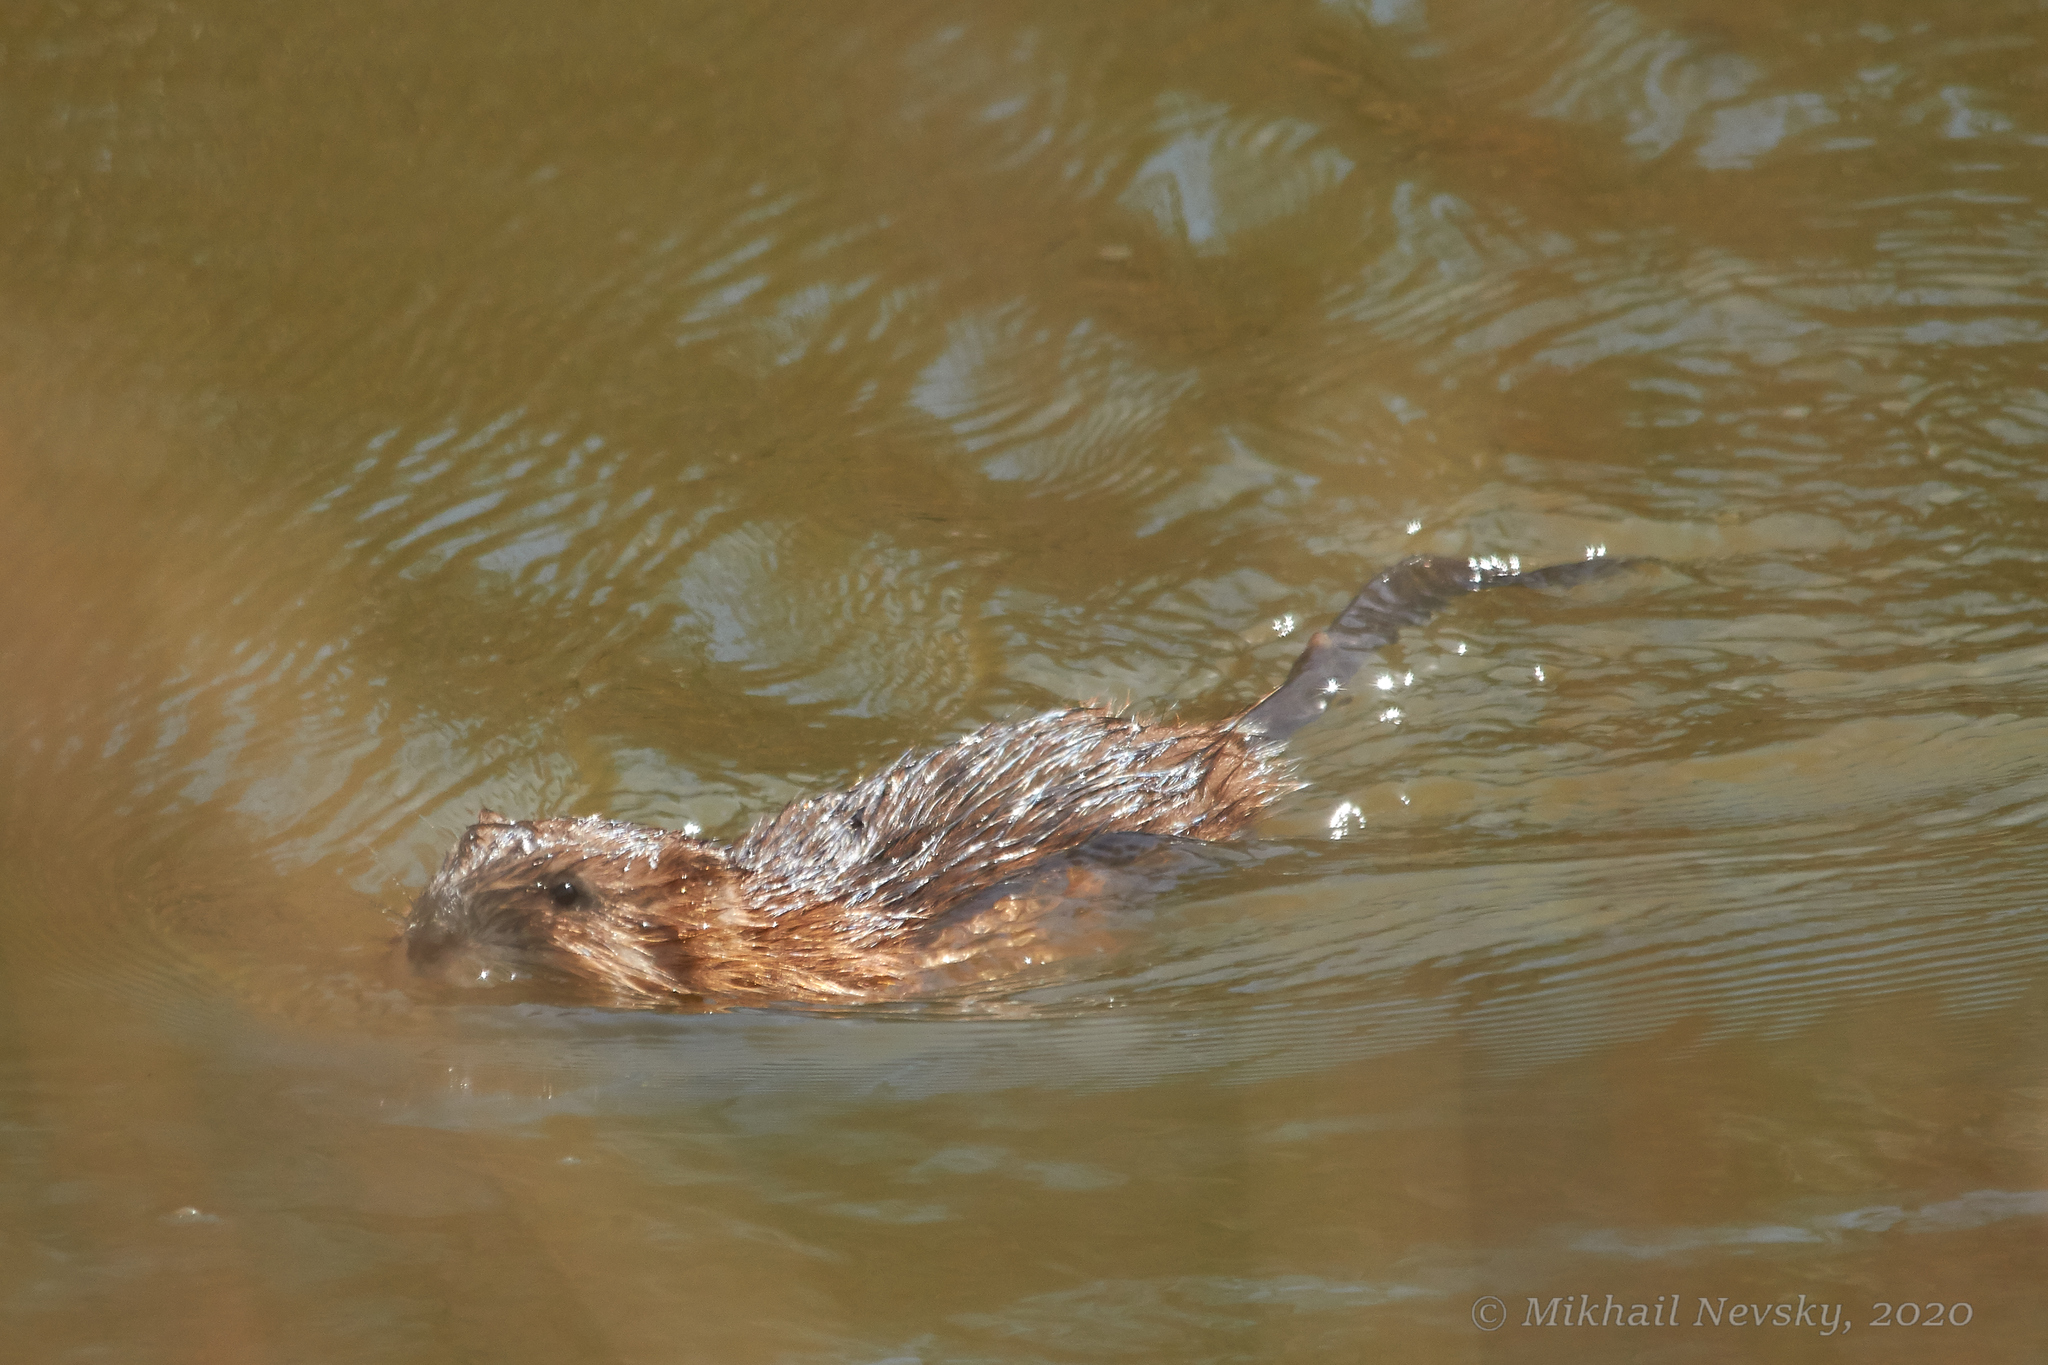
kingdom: Animalia
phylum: Chordata
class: Mammalia
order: Rodentia
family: Cricetidae
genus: Ondatra
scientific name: Ondatra zibethicus
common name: Muskrat
